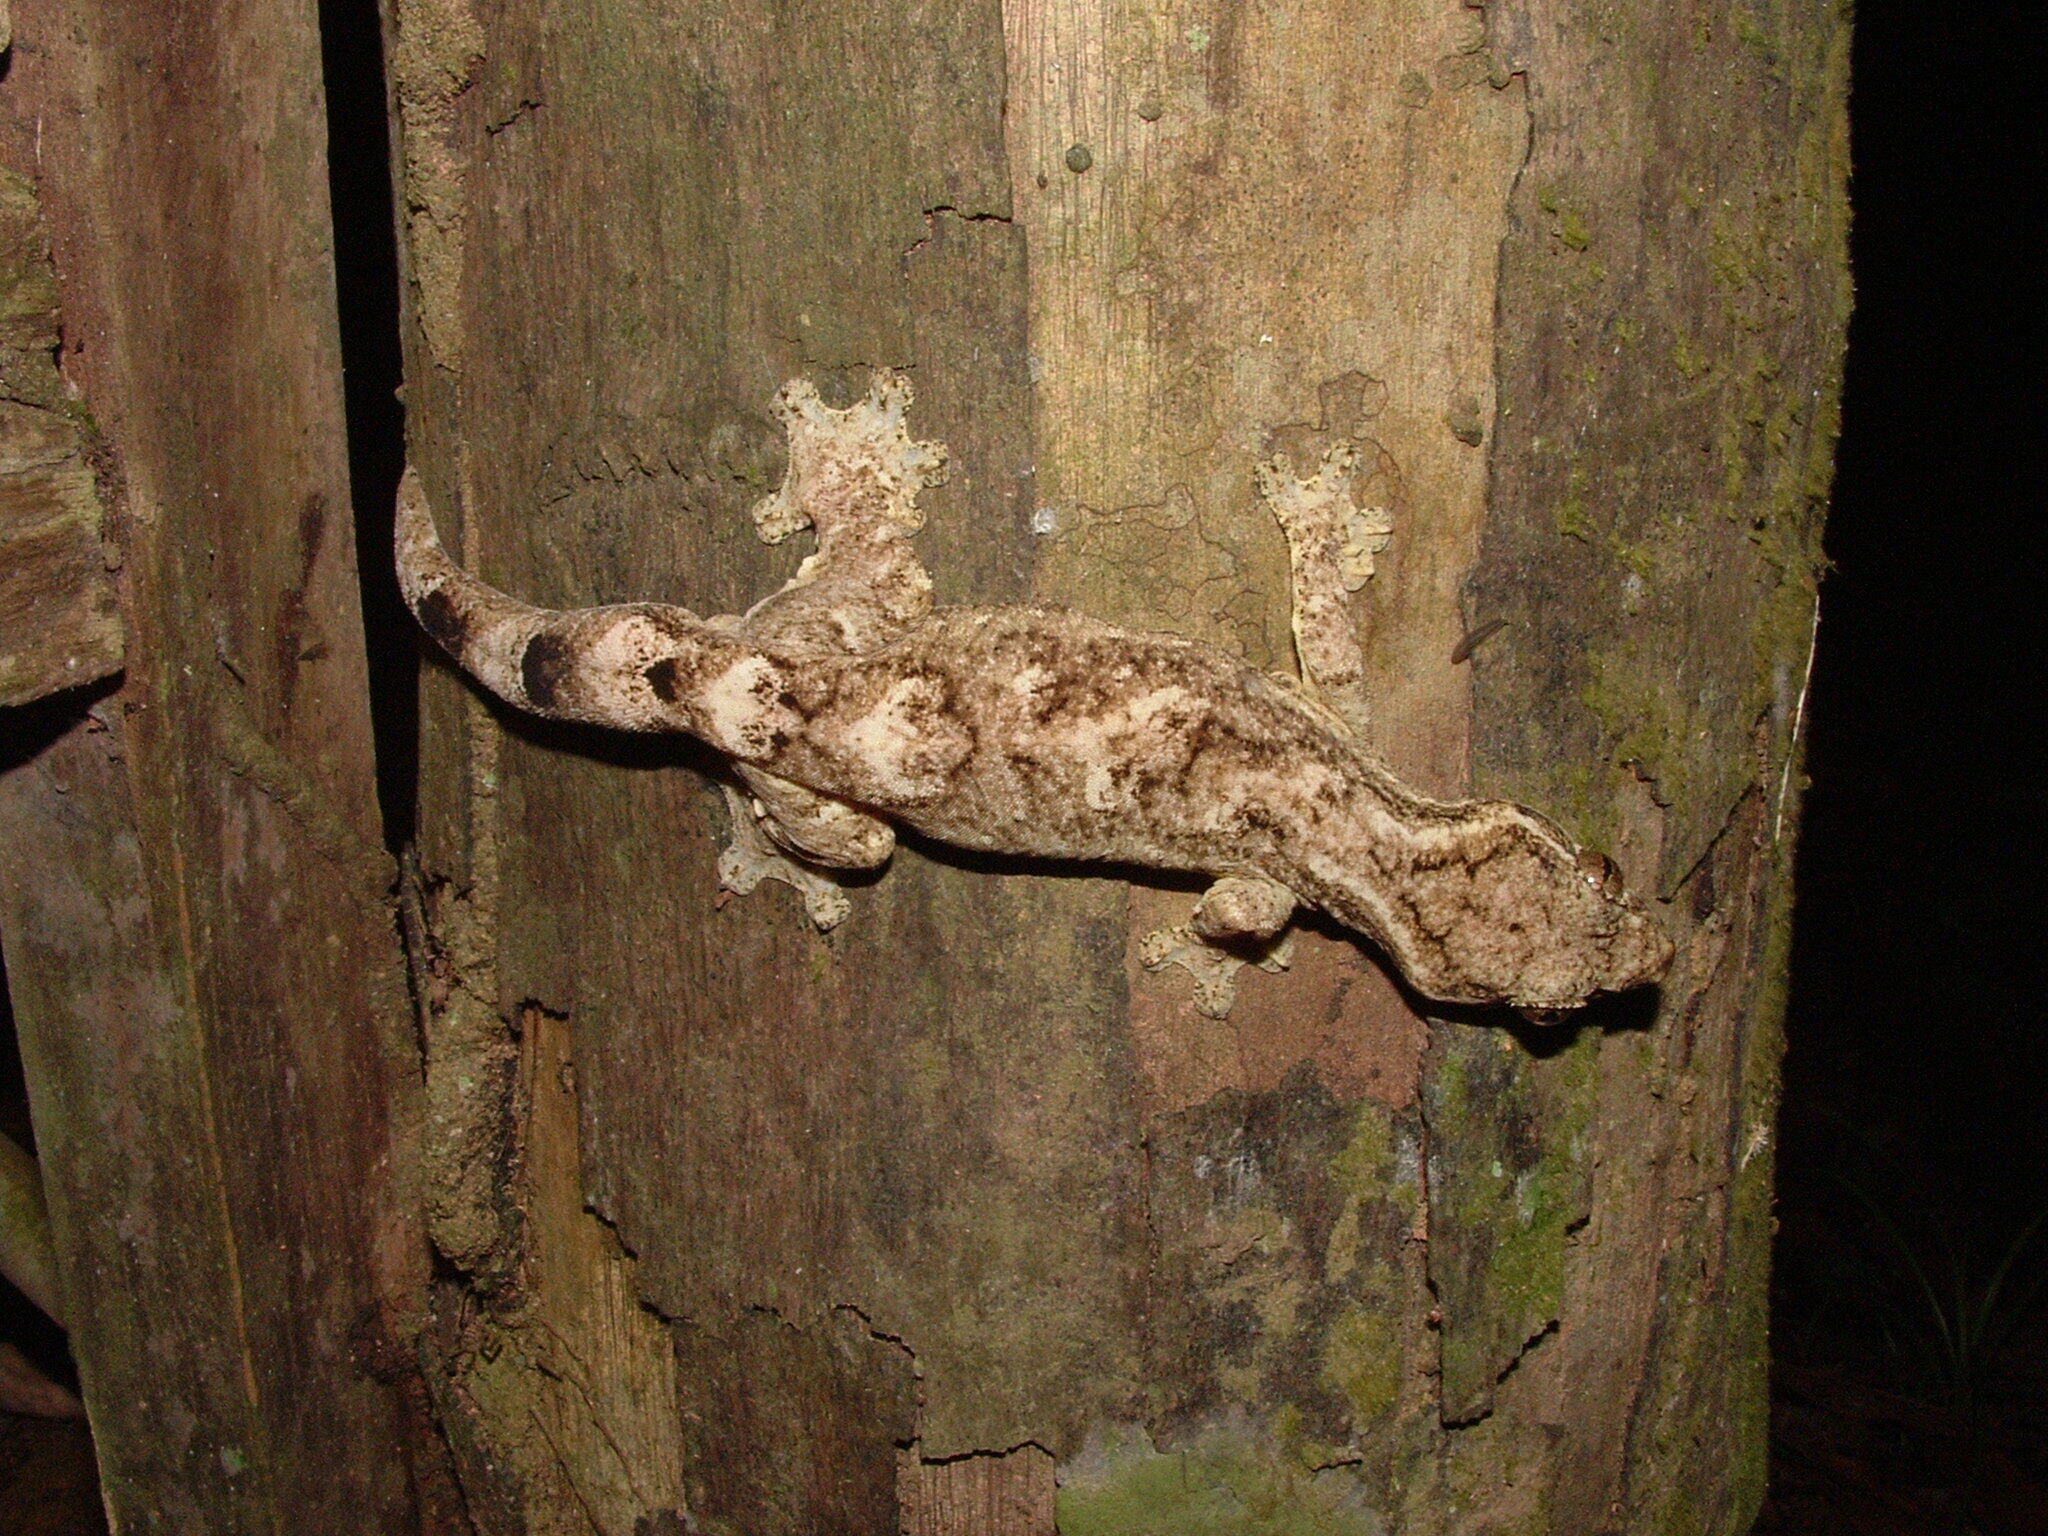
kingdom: Animalia
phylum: Chordata
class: Squamata
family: Phyllodactylidae
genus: Thecadactylus
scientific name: Thecadactylus solimoensis
